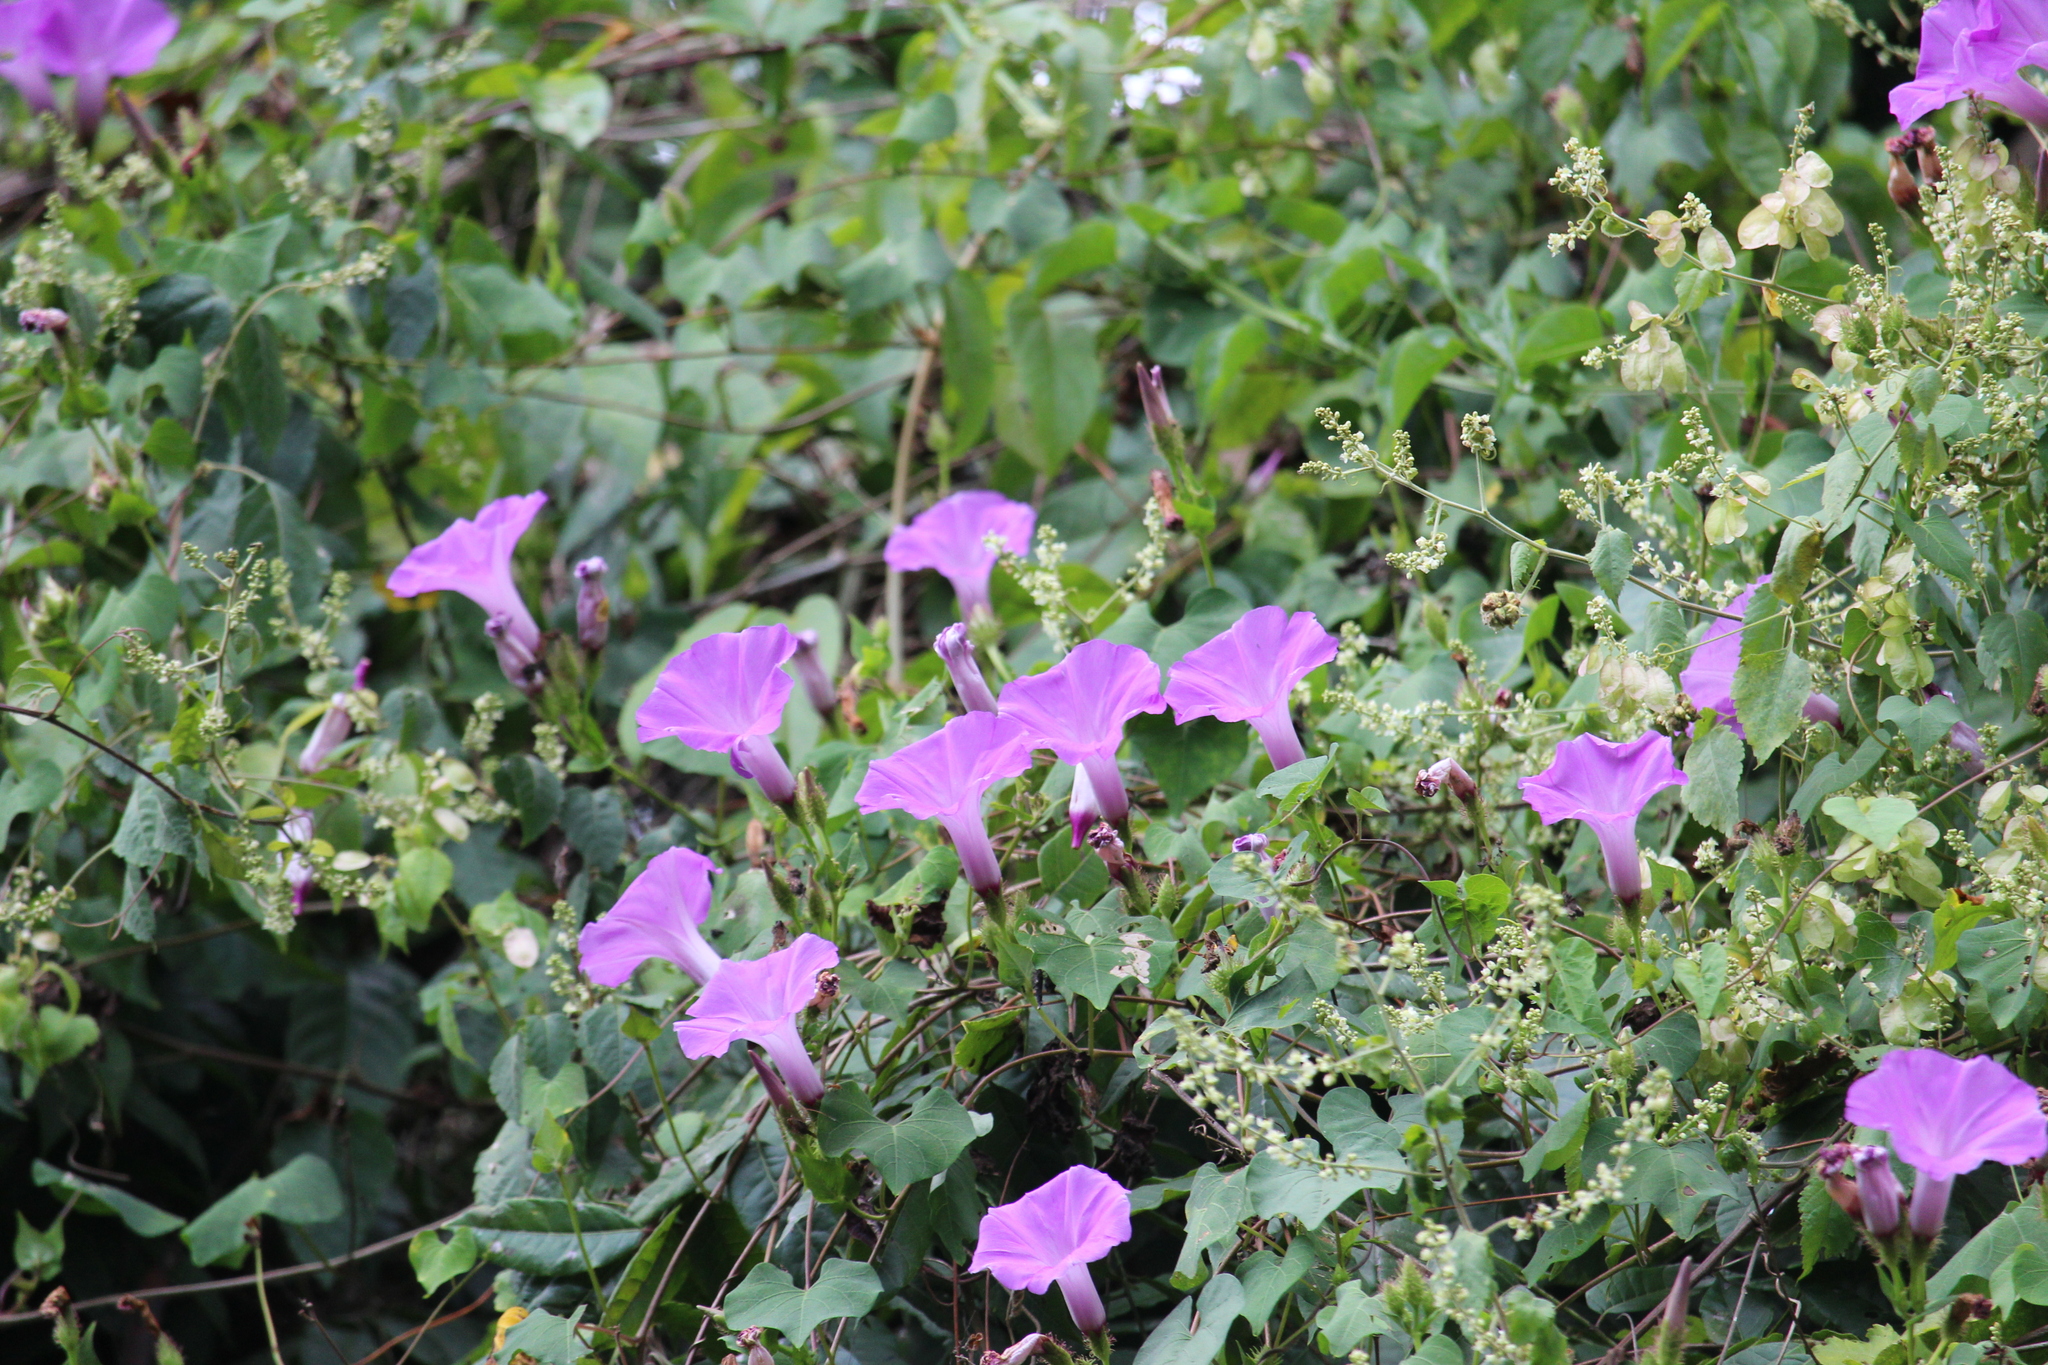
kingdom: Plantae
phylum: Tracheophyta
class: Magnoliopsida
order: Solanales
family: Convolvulaceae
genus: Ipomoea
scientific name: Ipomoea crinicalyx
